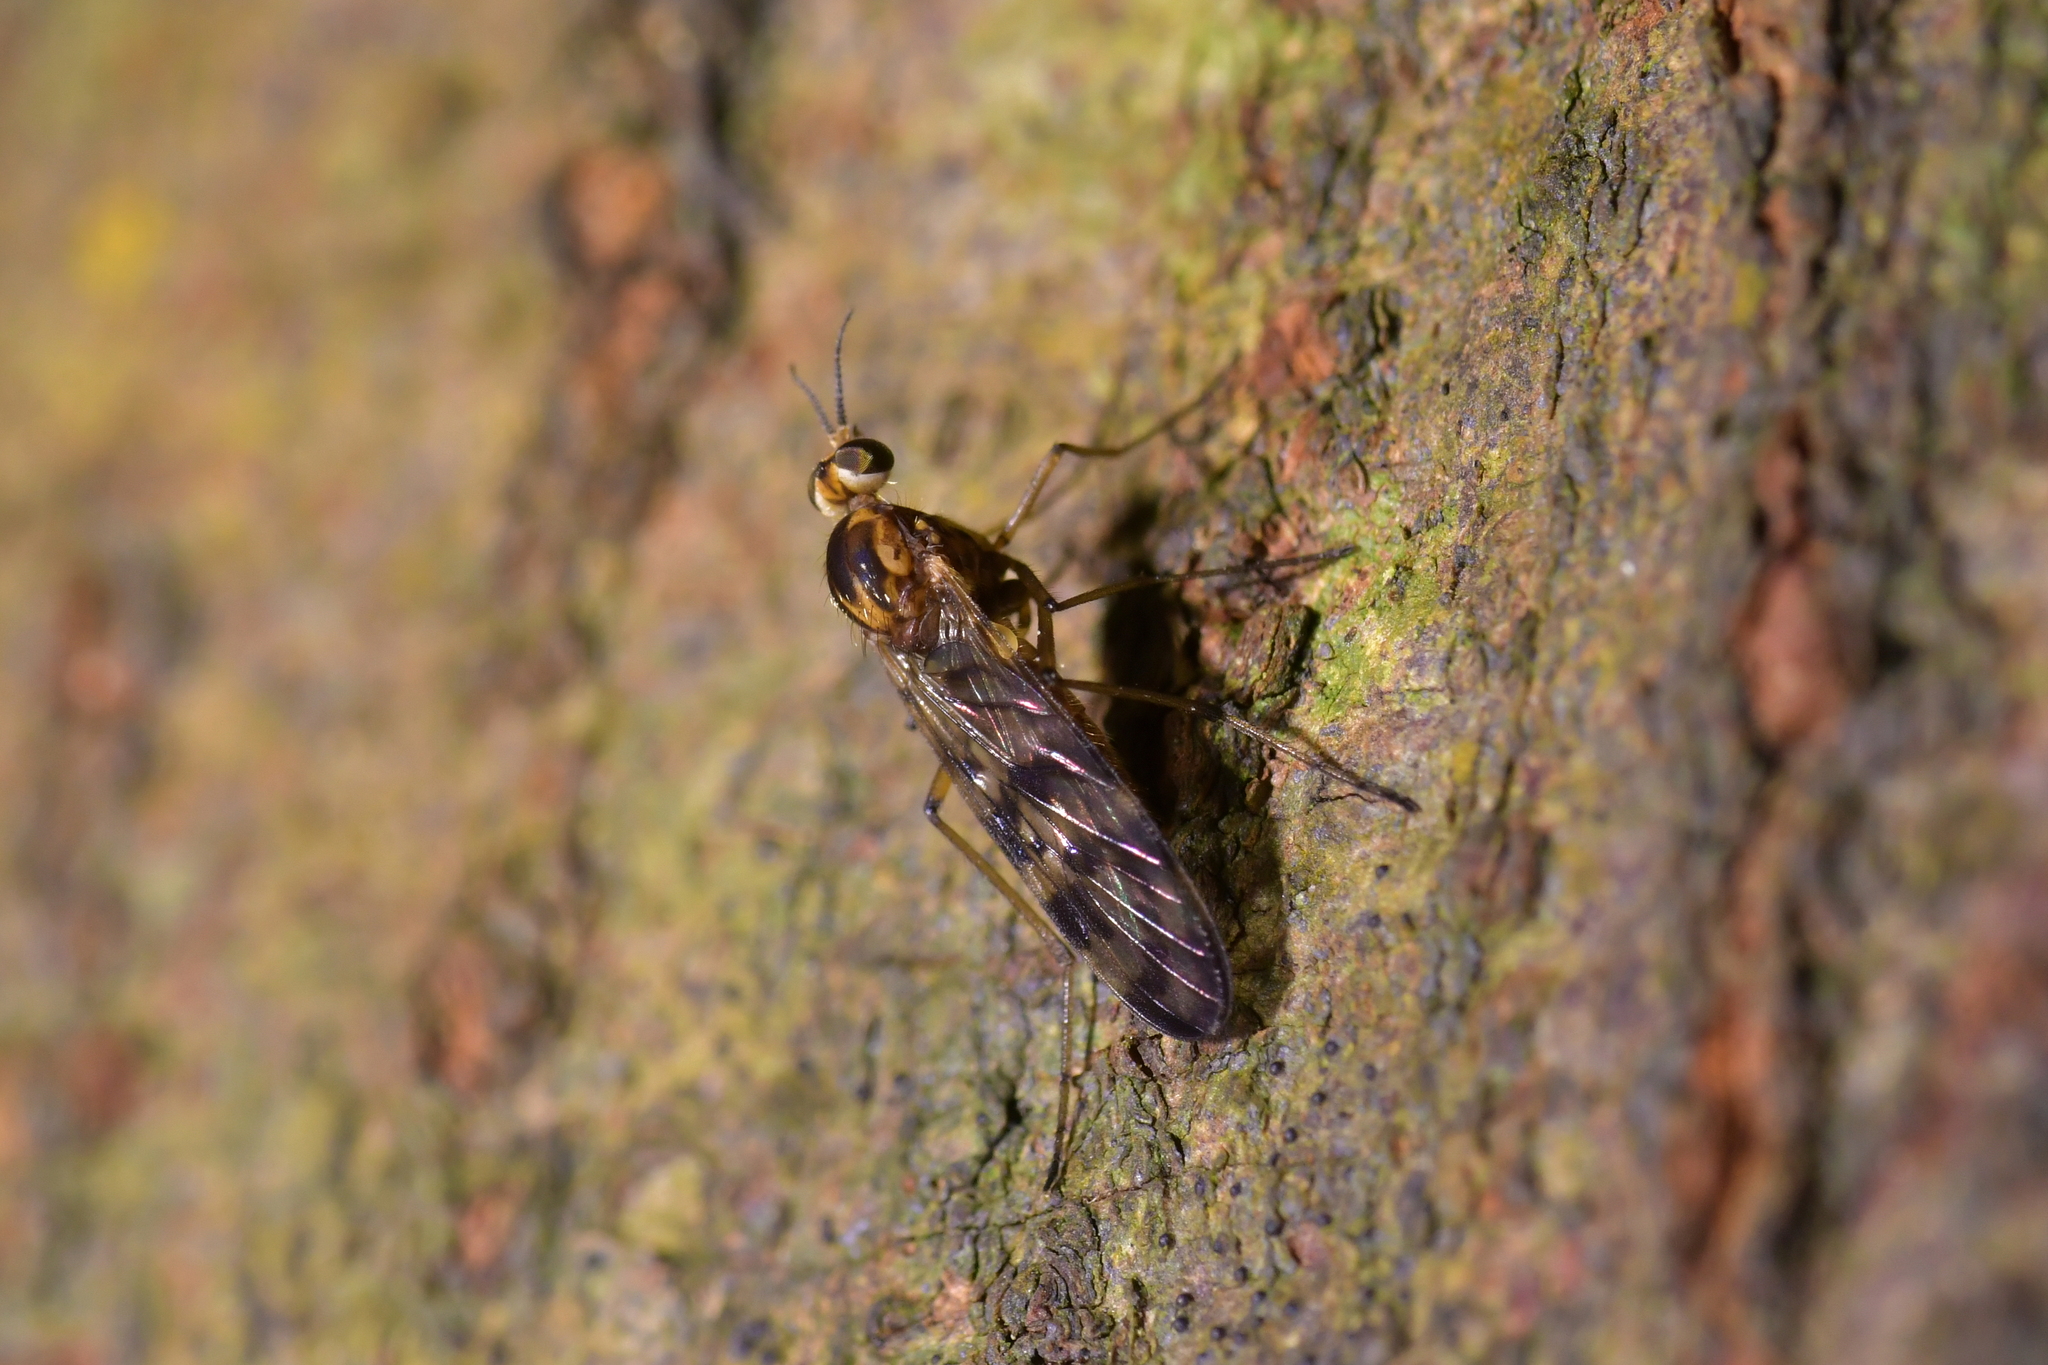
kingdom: Animalia
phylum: Arthropoda
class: Insecta
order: Diptera
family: Anisopodidae
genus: Sylvicola
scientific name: Sylvicola dubius
